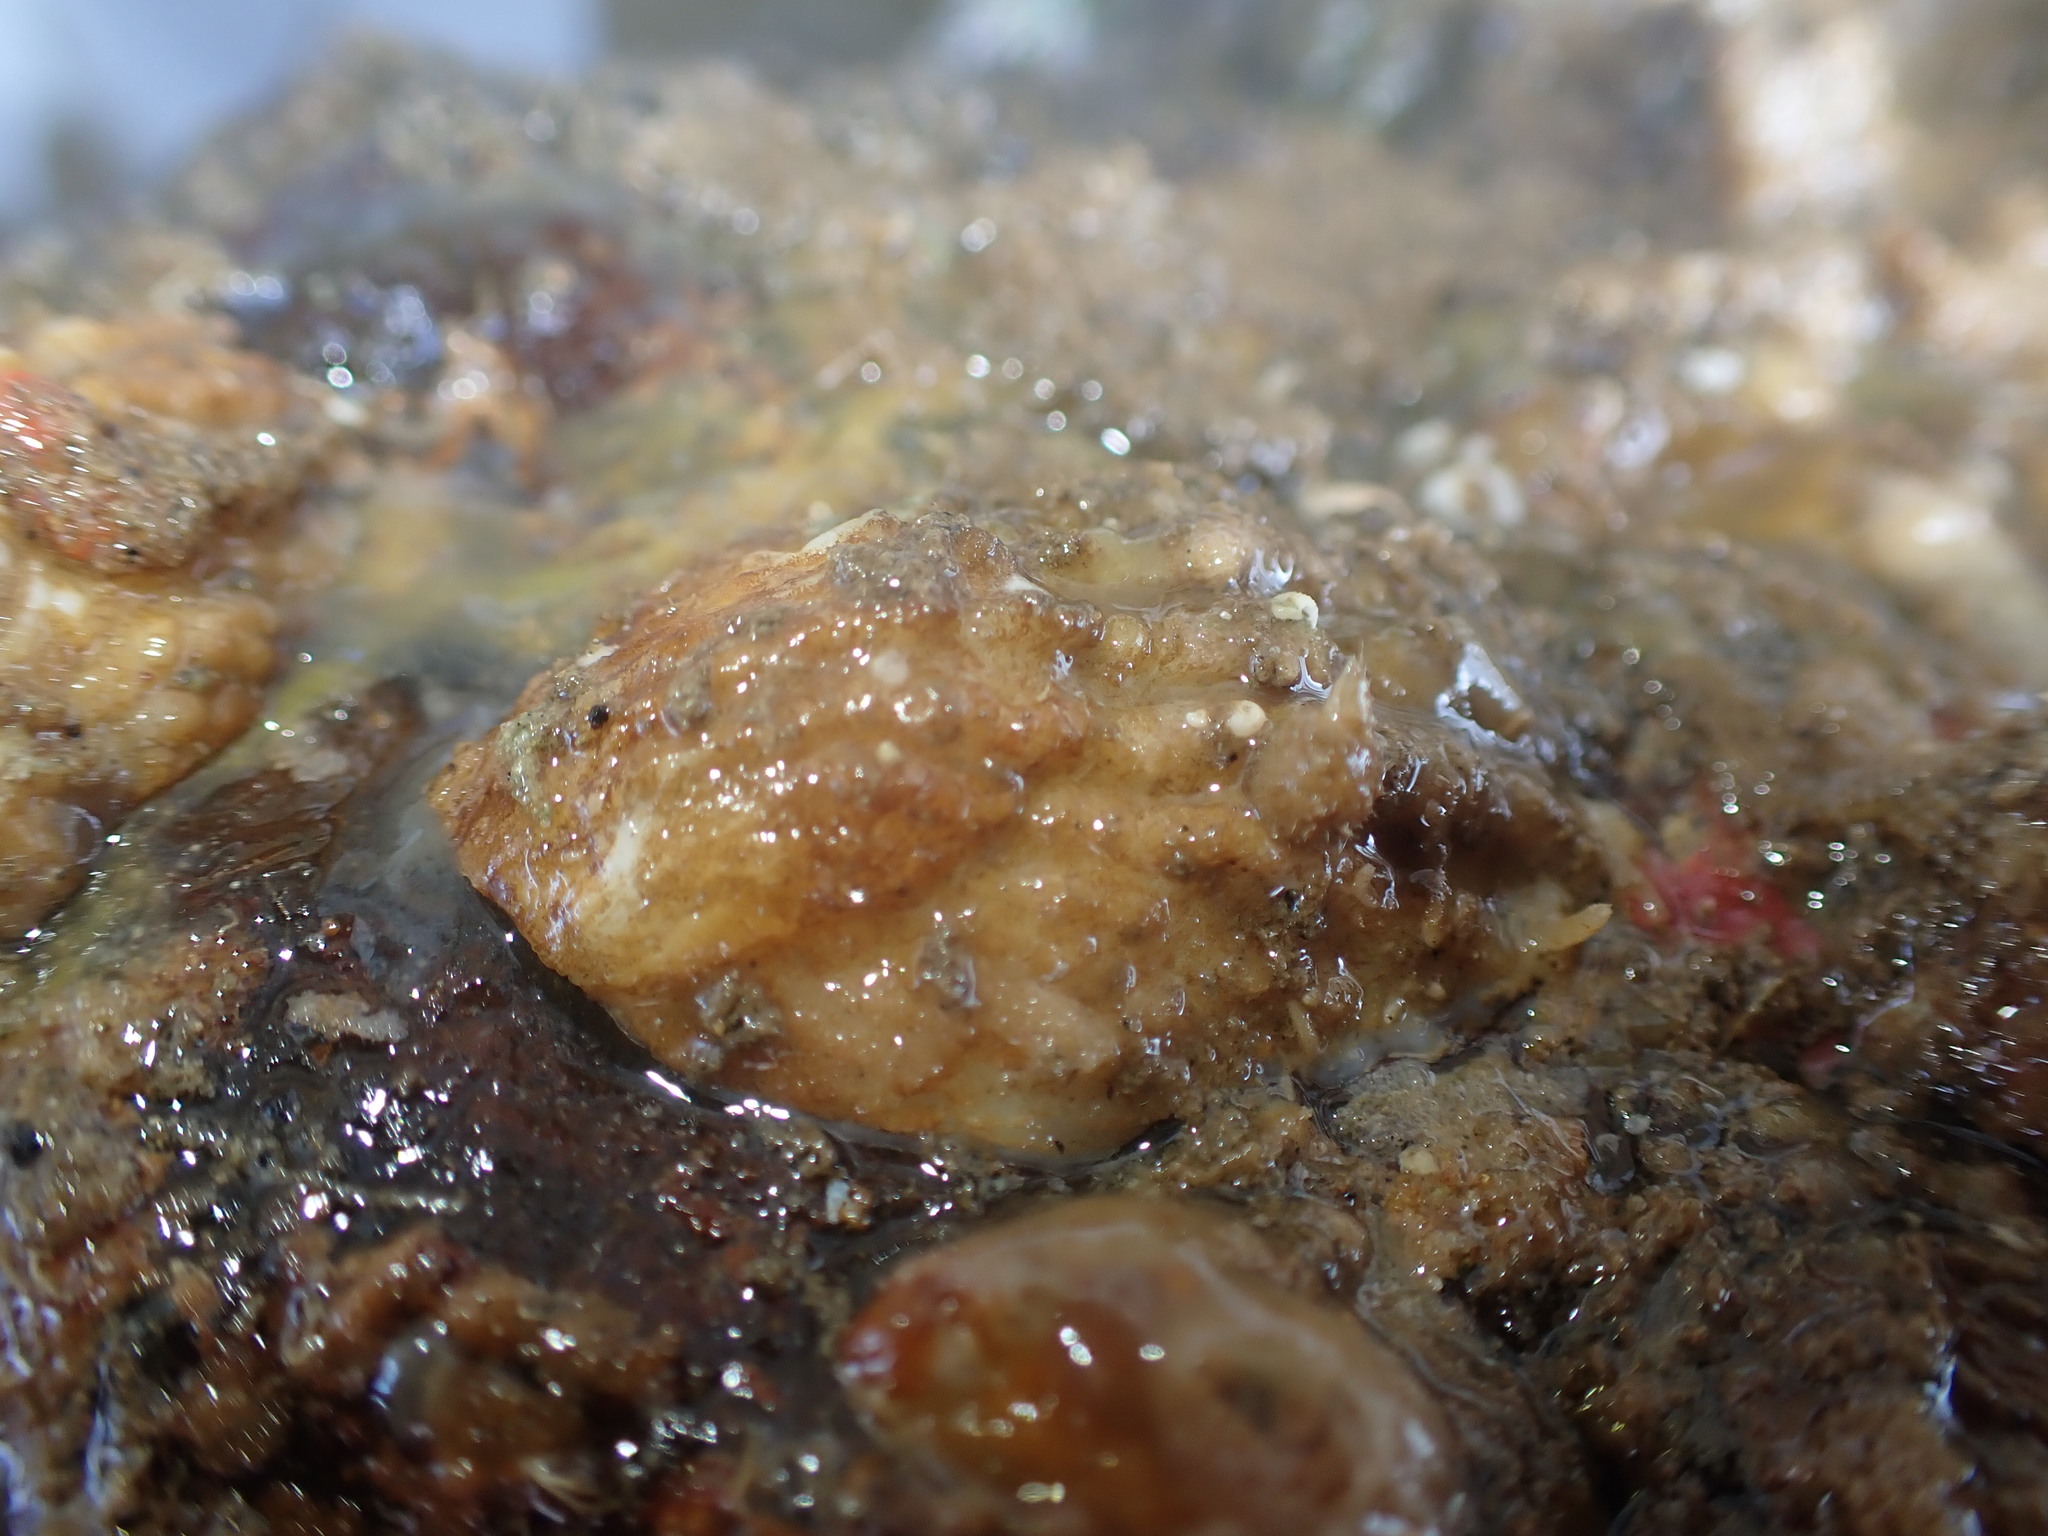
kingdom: Animalia
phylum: Mollusca
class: Gastropoda
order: Littorinimorpha
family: Calyptraeidae
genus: Maoricrypta
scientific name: Maoricrypta costata
